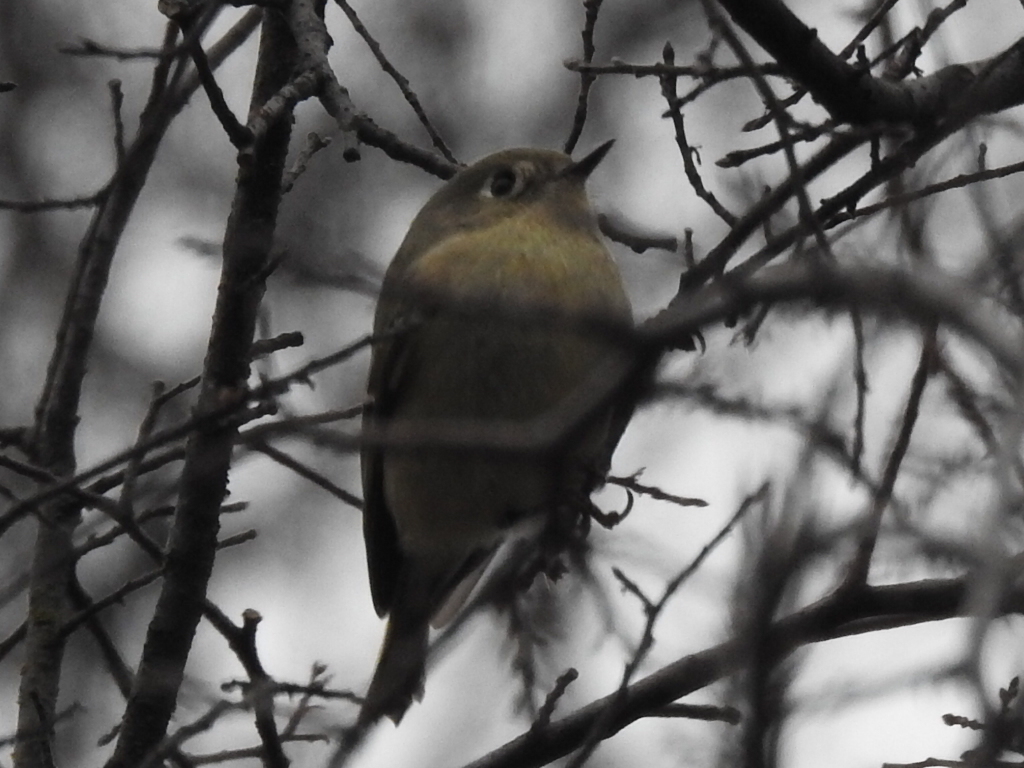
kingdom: Animalia
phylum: Chordata
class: Aves
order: Passeriformes
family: Regulidae
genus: Regulus
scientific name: Regulus calendula
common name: Ruby-crowned kinglet
